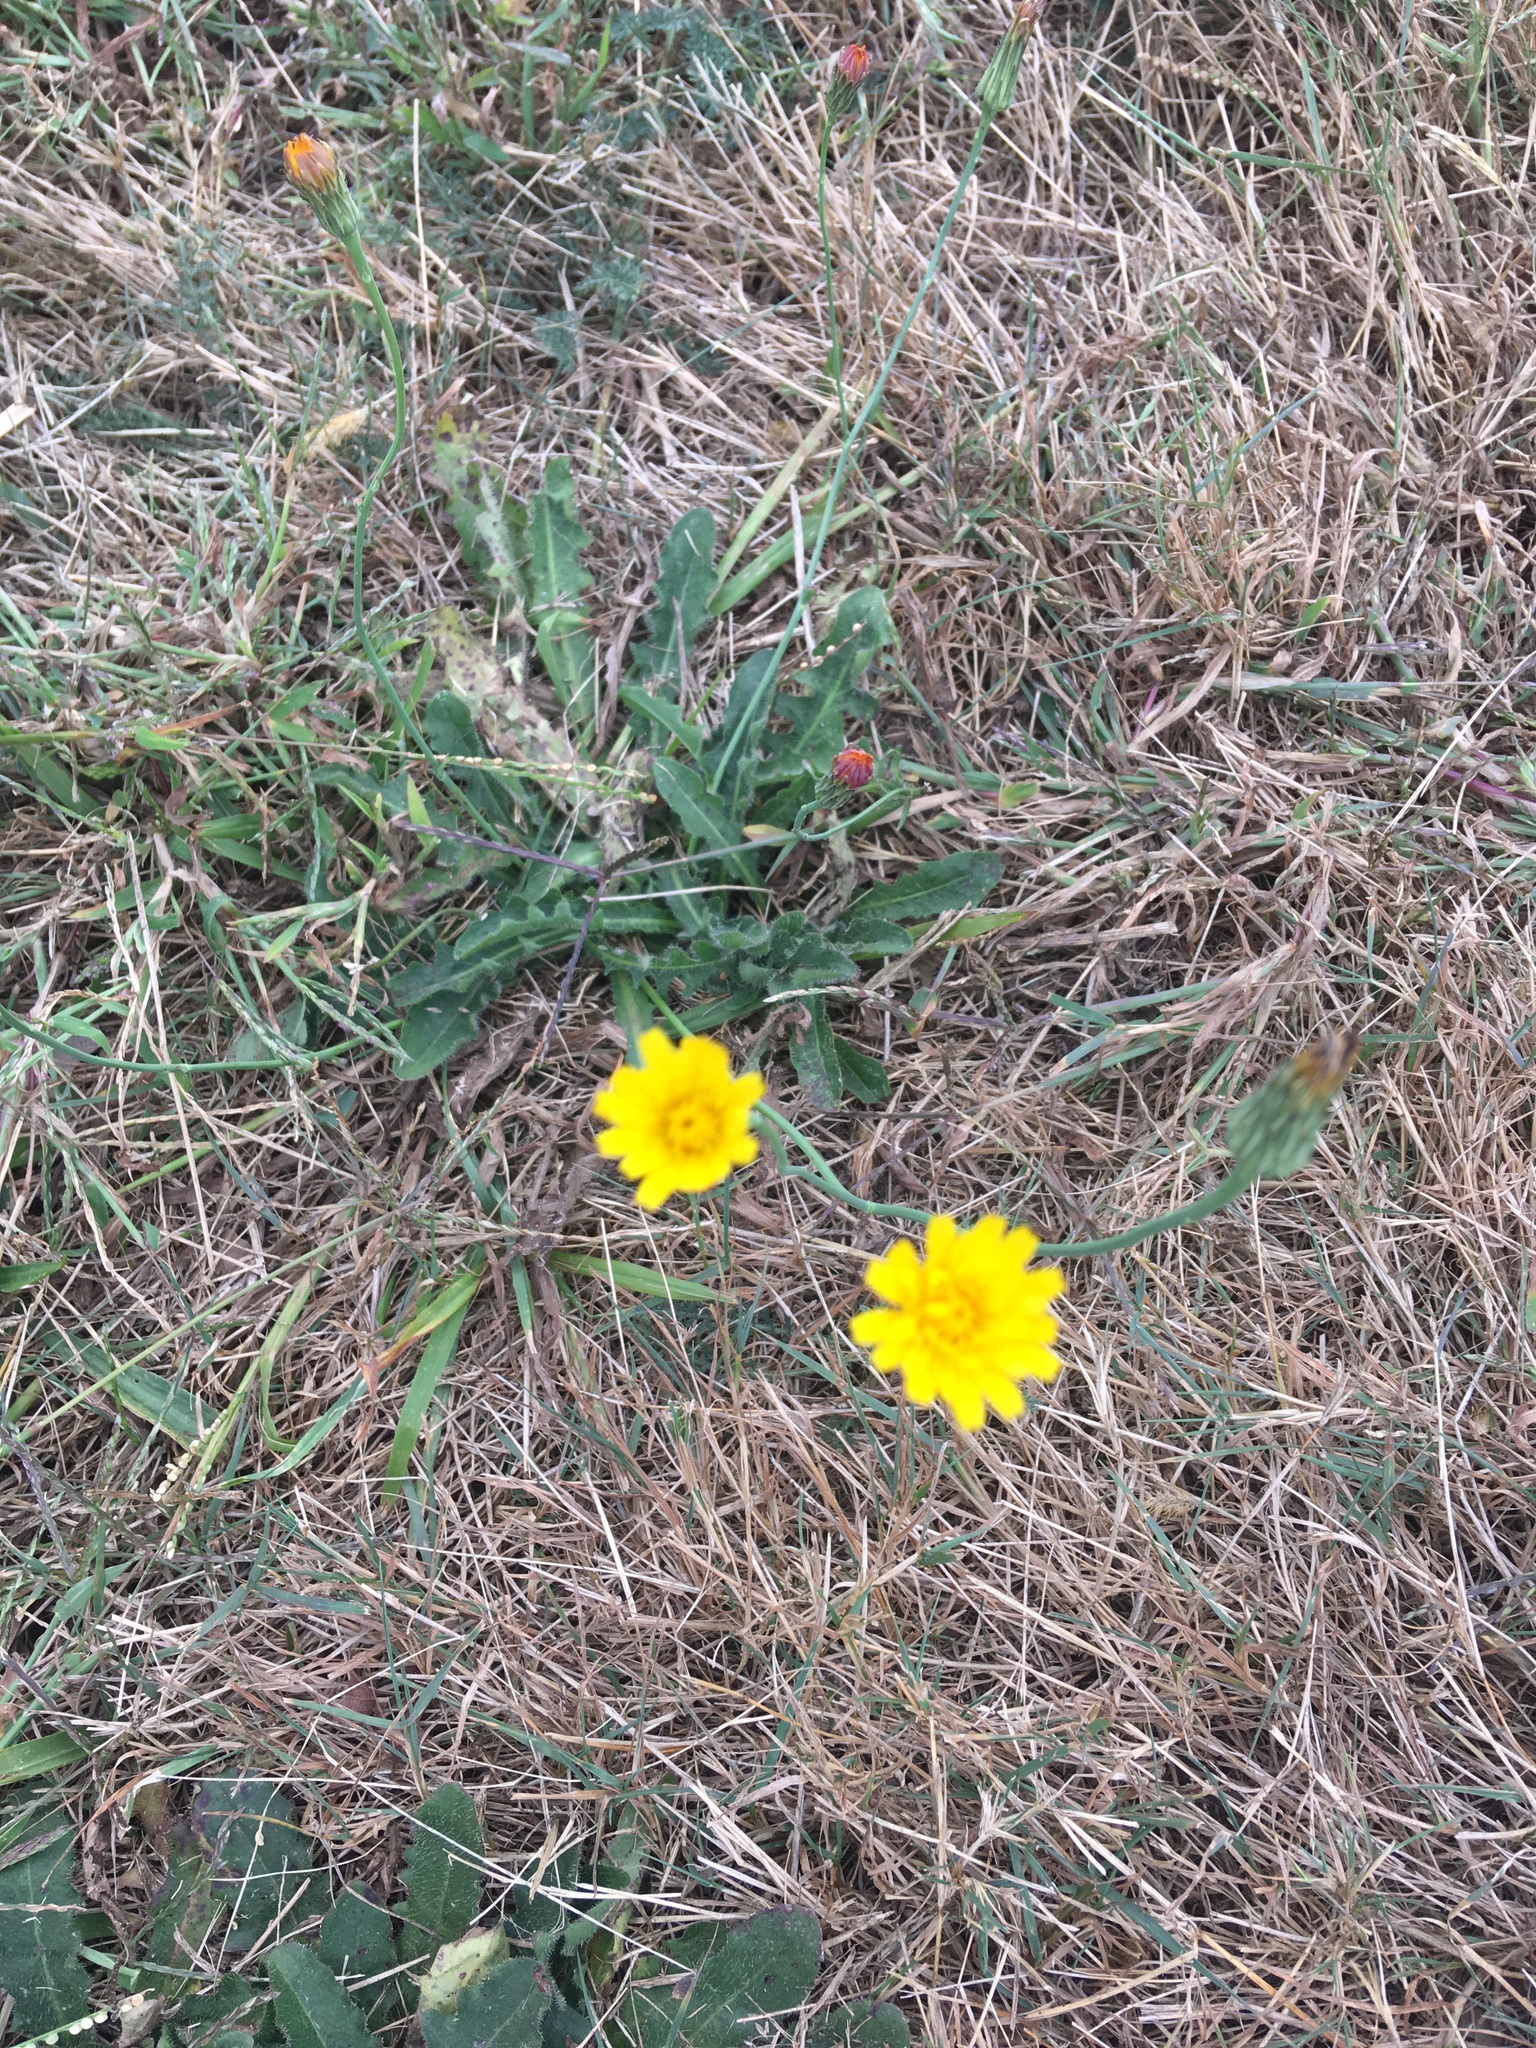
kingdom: Plantae
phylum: Tracheophyta
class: Magnoliopsida
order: Asterales
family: Asteraceae
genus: Hypochaeris
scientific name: Hypochaeris radicata
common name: Flatweed
